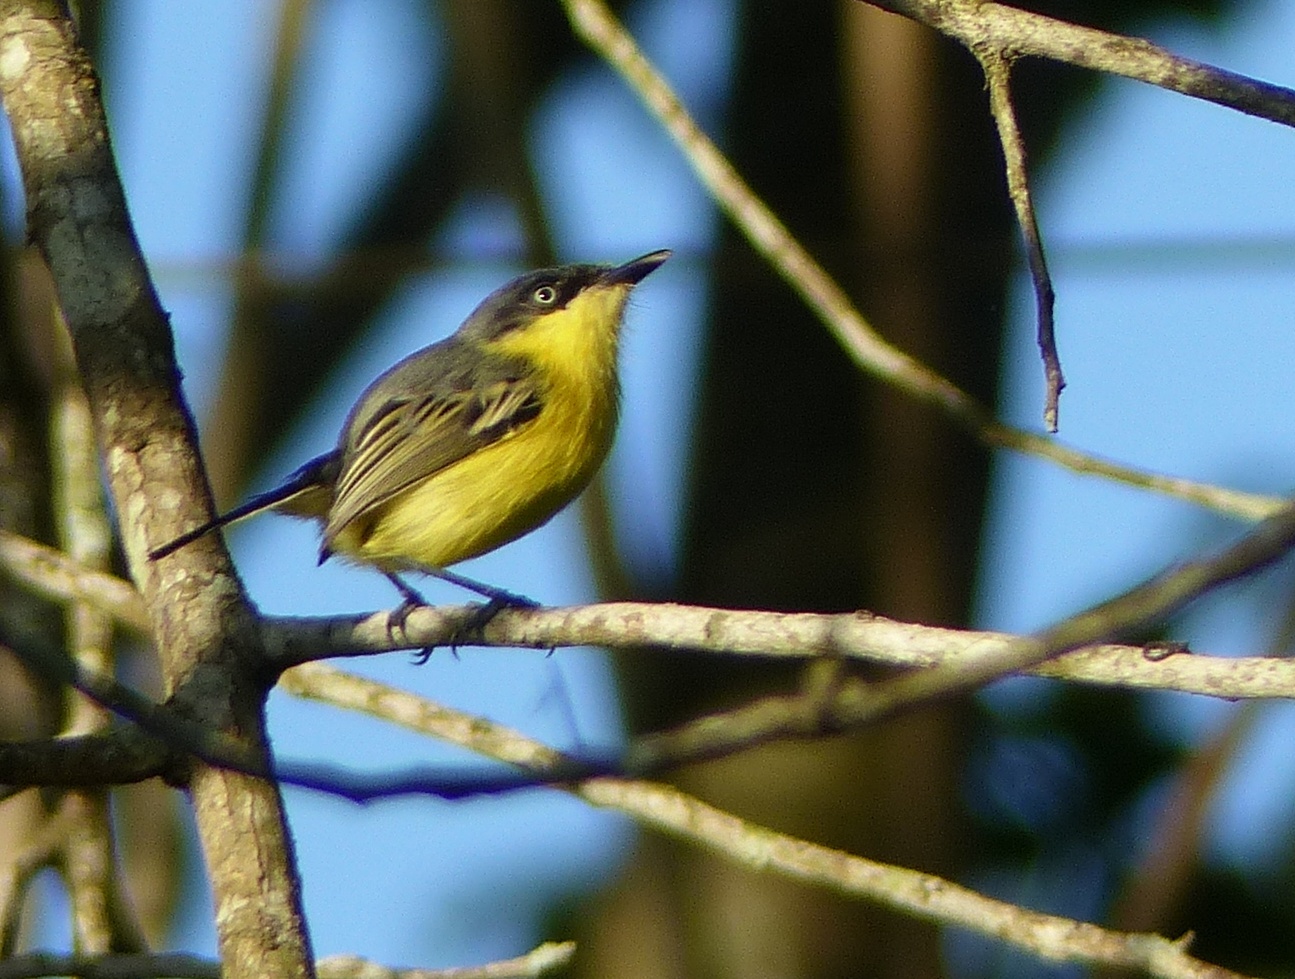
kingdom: Animalia
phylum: Chordata
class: Aves
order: Passeriformes
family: Tyrannidae
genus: Todirostrum
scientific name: Todirostrum cinereum
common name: Common tody-flycatcher
